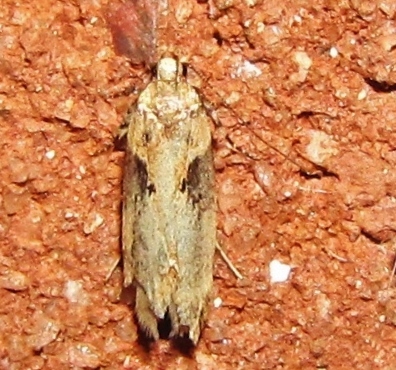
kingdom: Animalia
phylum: Arthropoda
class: Insecta
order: Lepidoptera
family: Gelechiidae
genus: Chionodes
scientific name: Chionodes mediofuscella
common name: Black-smudged chionodes moth
